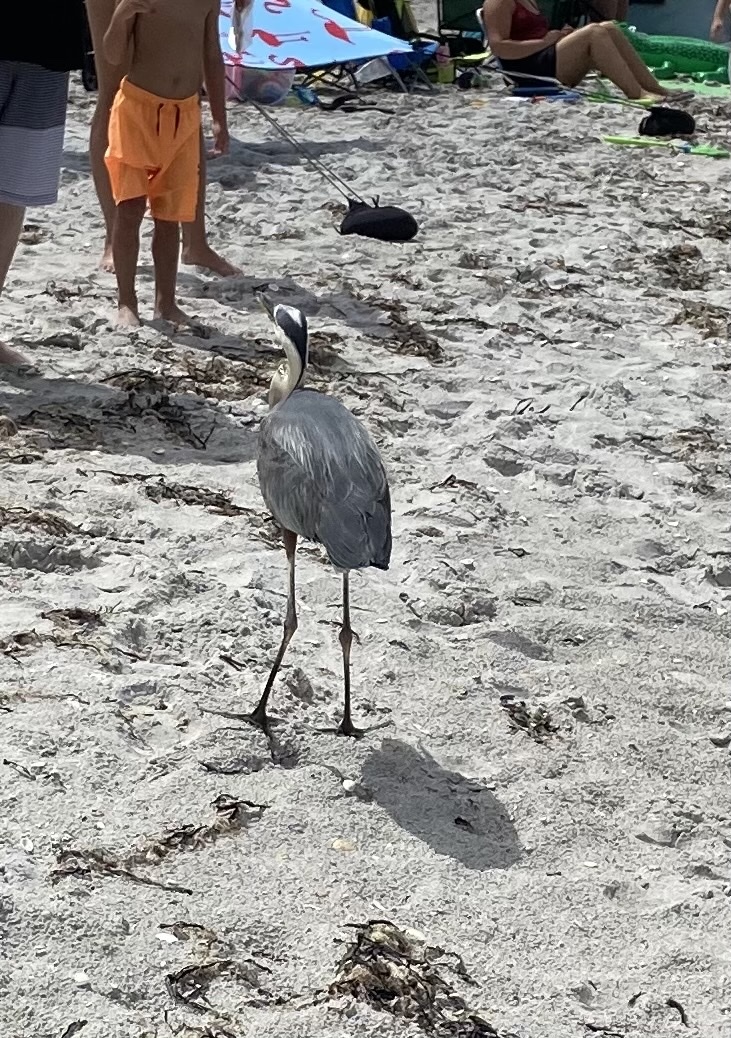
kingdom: Animalia
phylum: Chordata
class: Aves
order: Pelecaniformes
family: Ardeidae
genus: Ardea
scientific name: Ardea herodias
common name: Great blue heron
